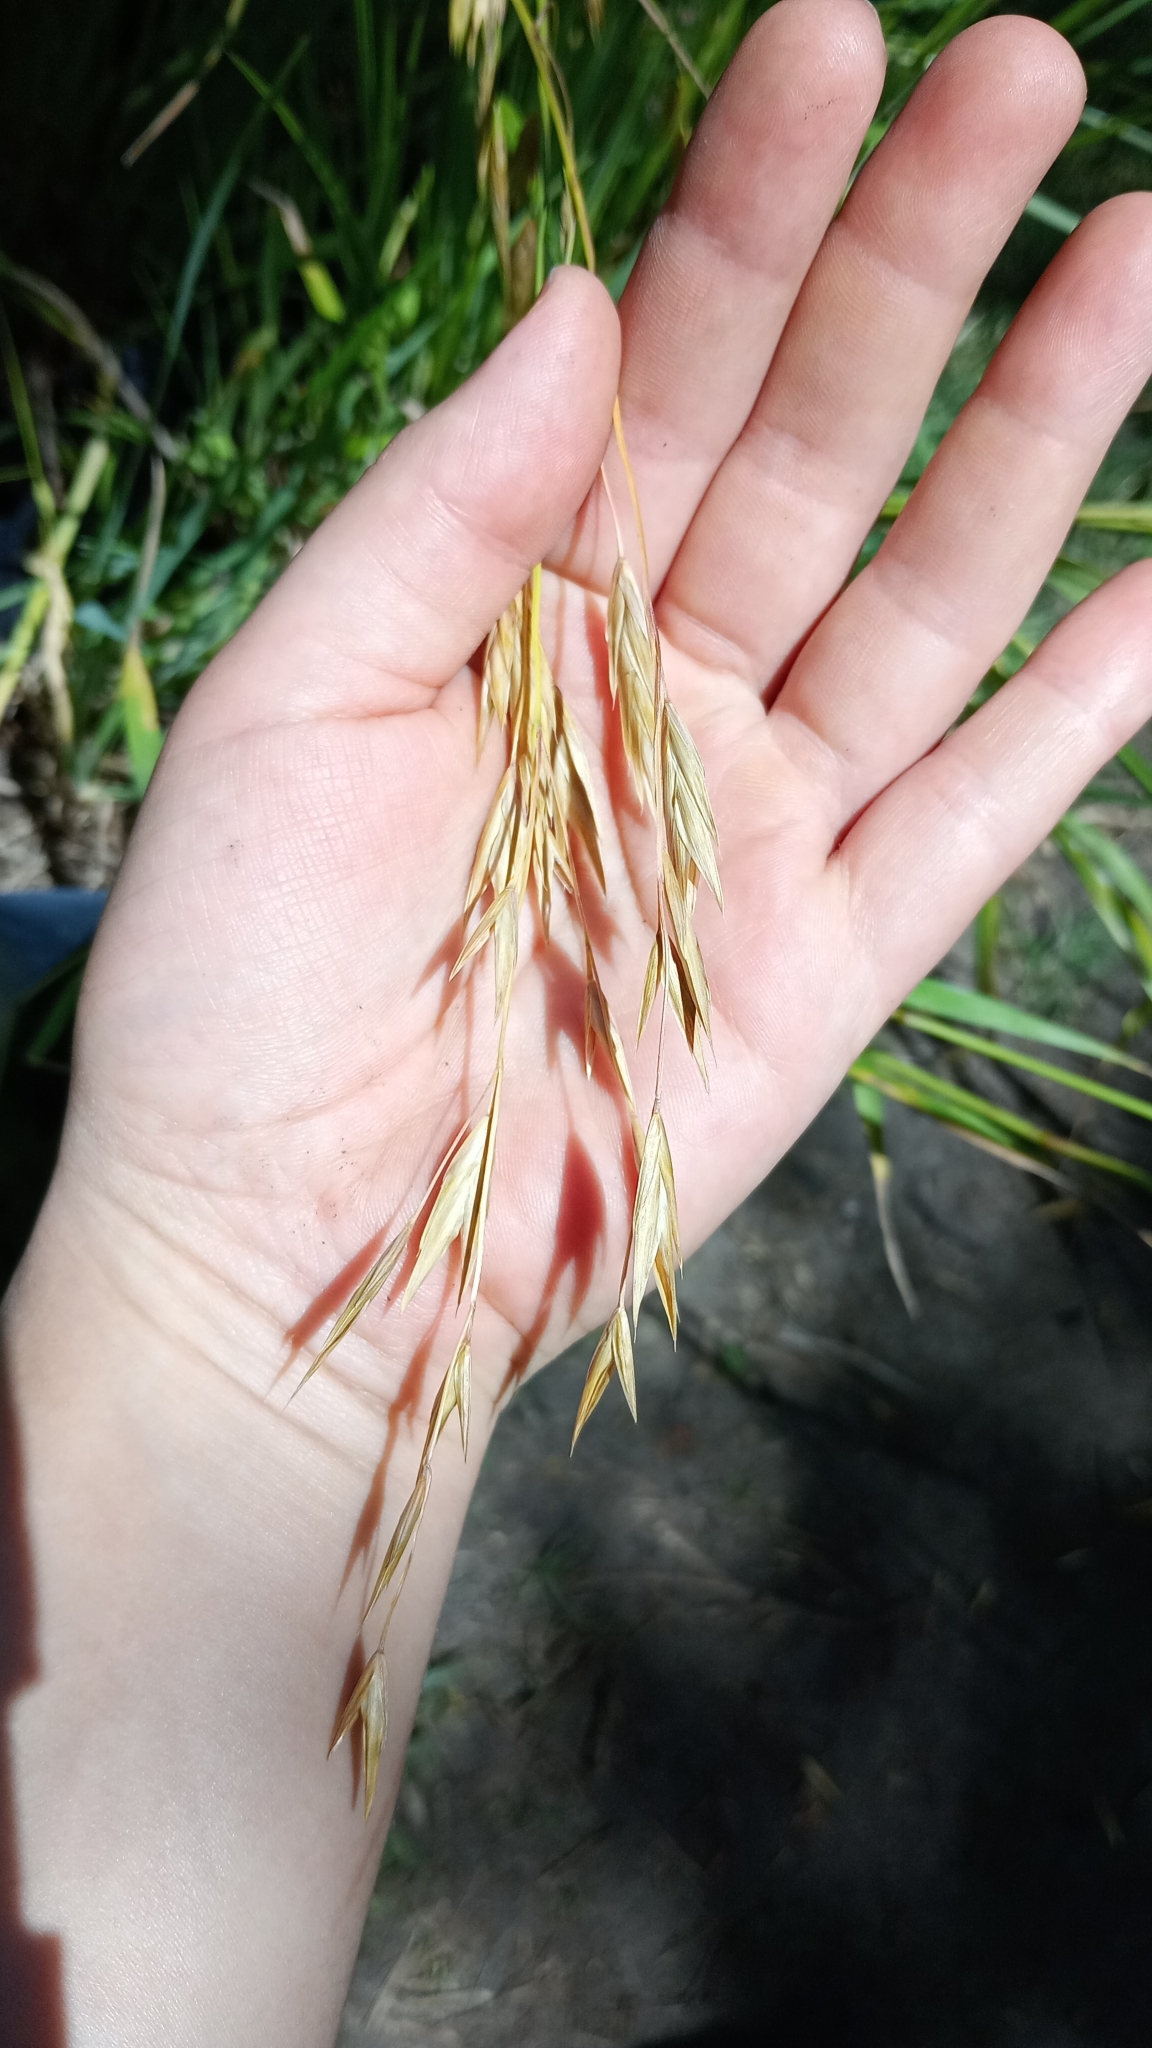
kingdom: Plantae
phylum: Tracheophyta
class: Liliopsida
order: Poales
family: Poaceae
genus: Bromus
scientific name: Bromus catharticus
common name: Rescuegrass
